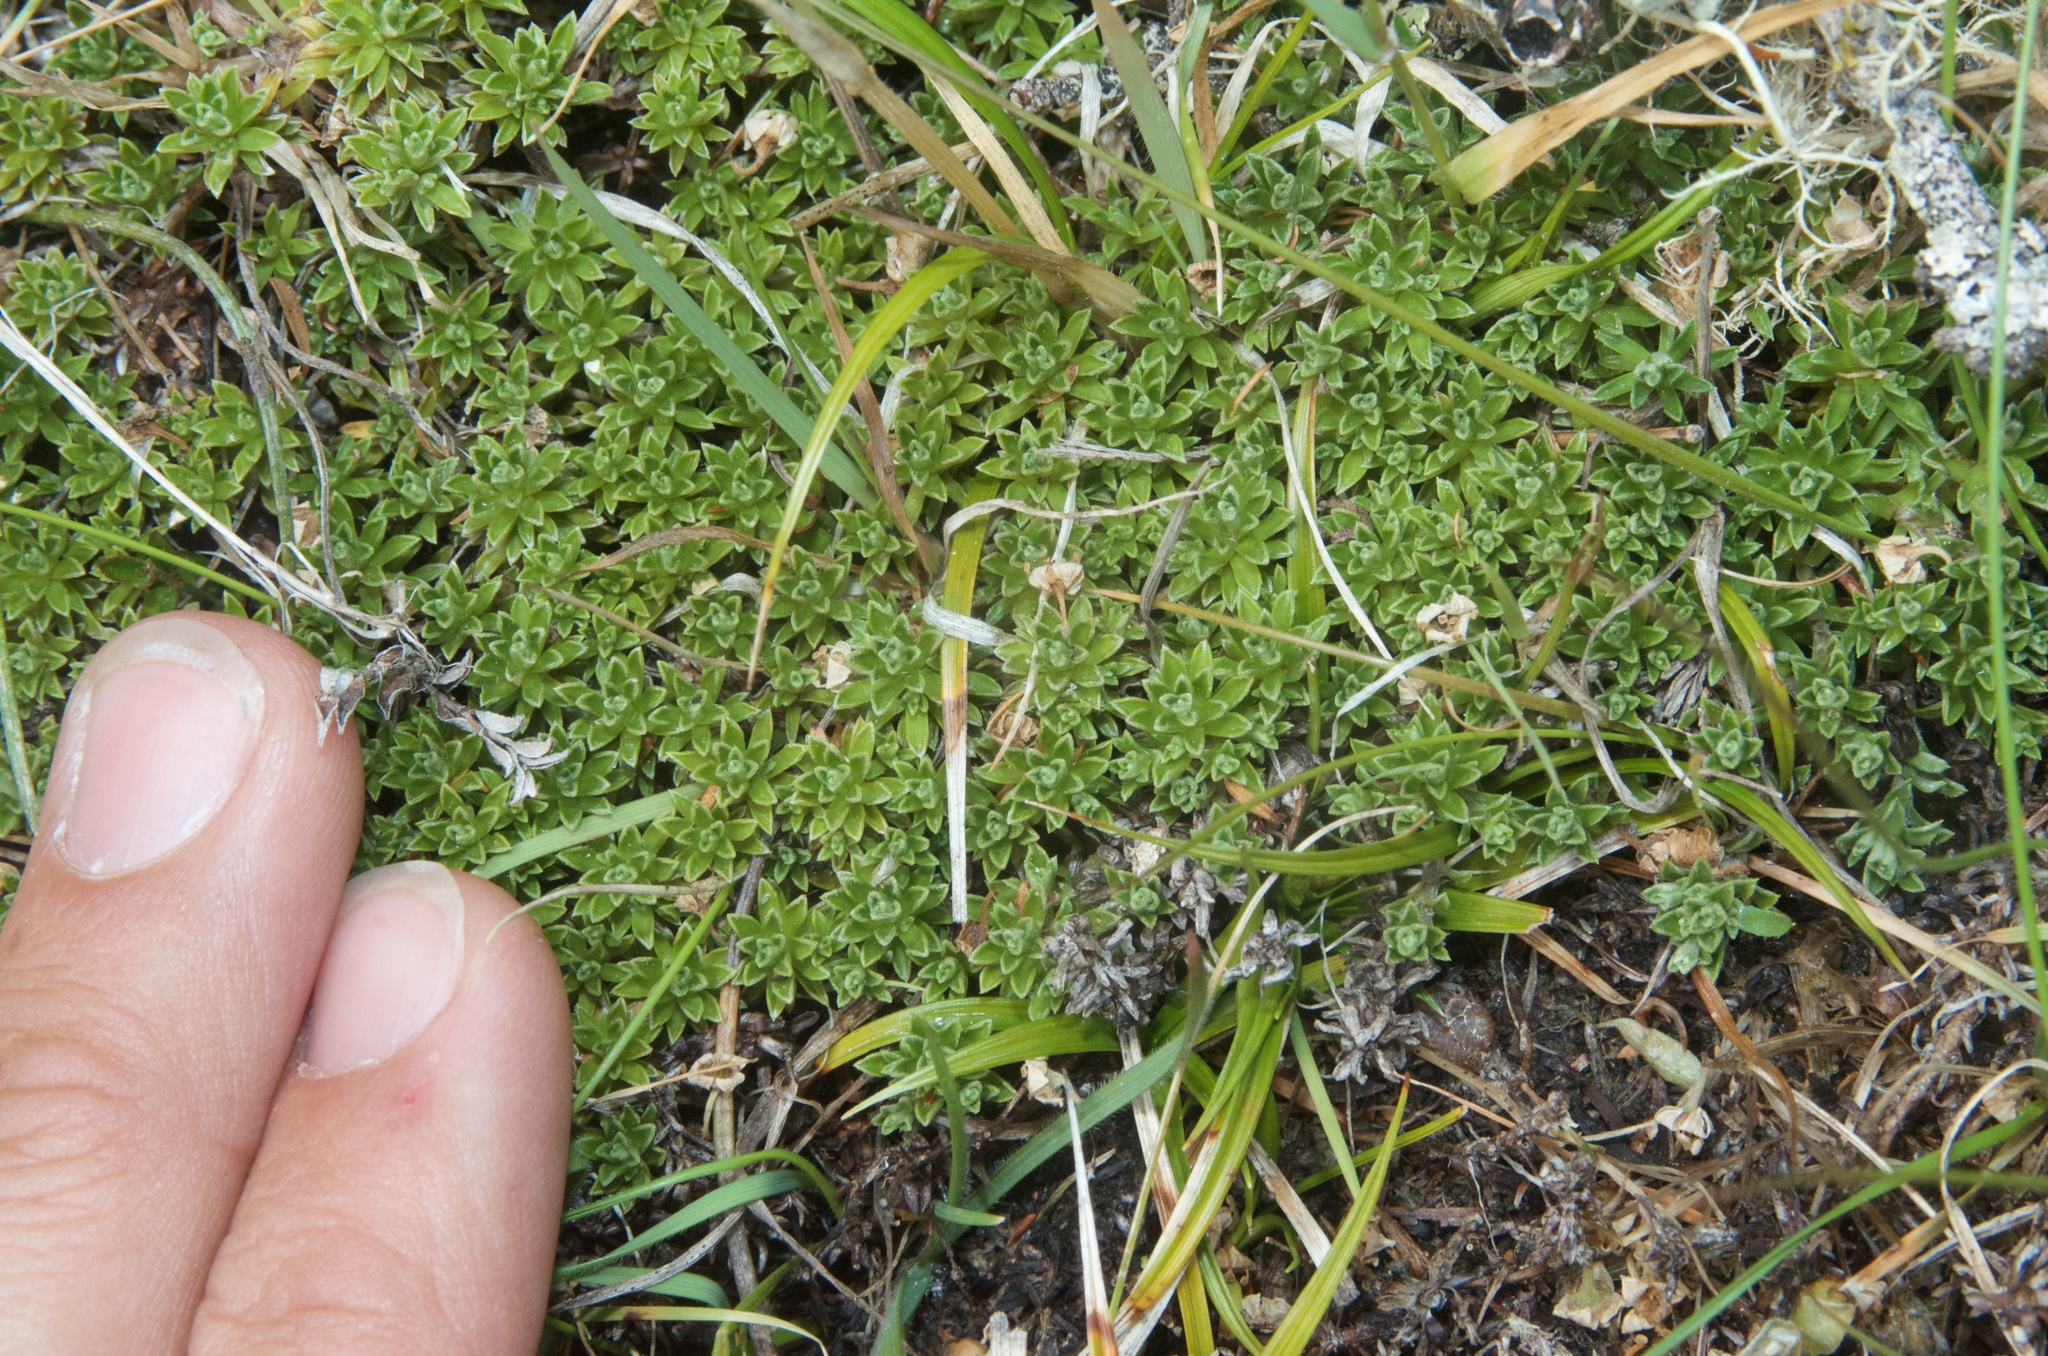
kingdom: Plantae
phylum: Tracheophyta
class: Magnoliopsida
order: Asterales
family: Asteraceae
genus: Raoulia
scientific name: Raoulia subsericea
